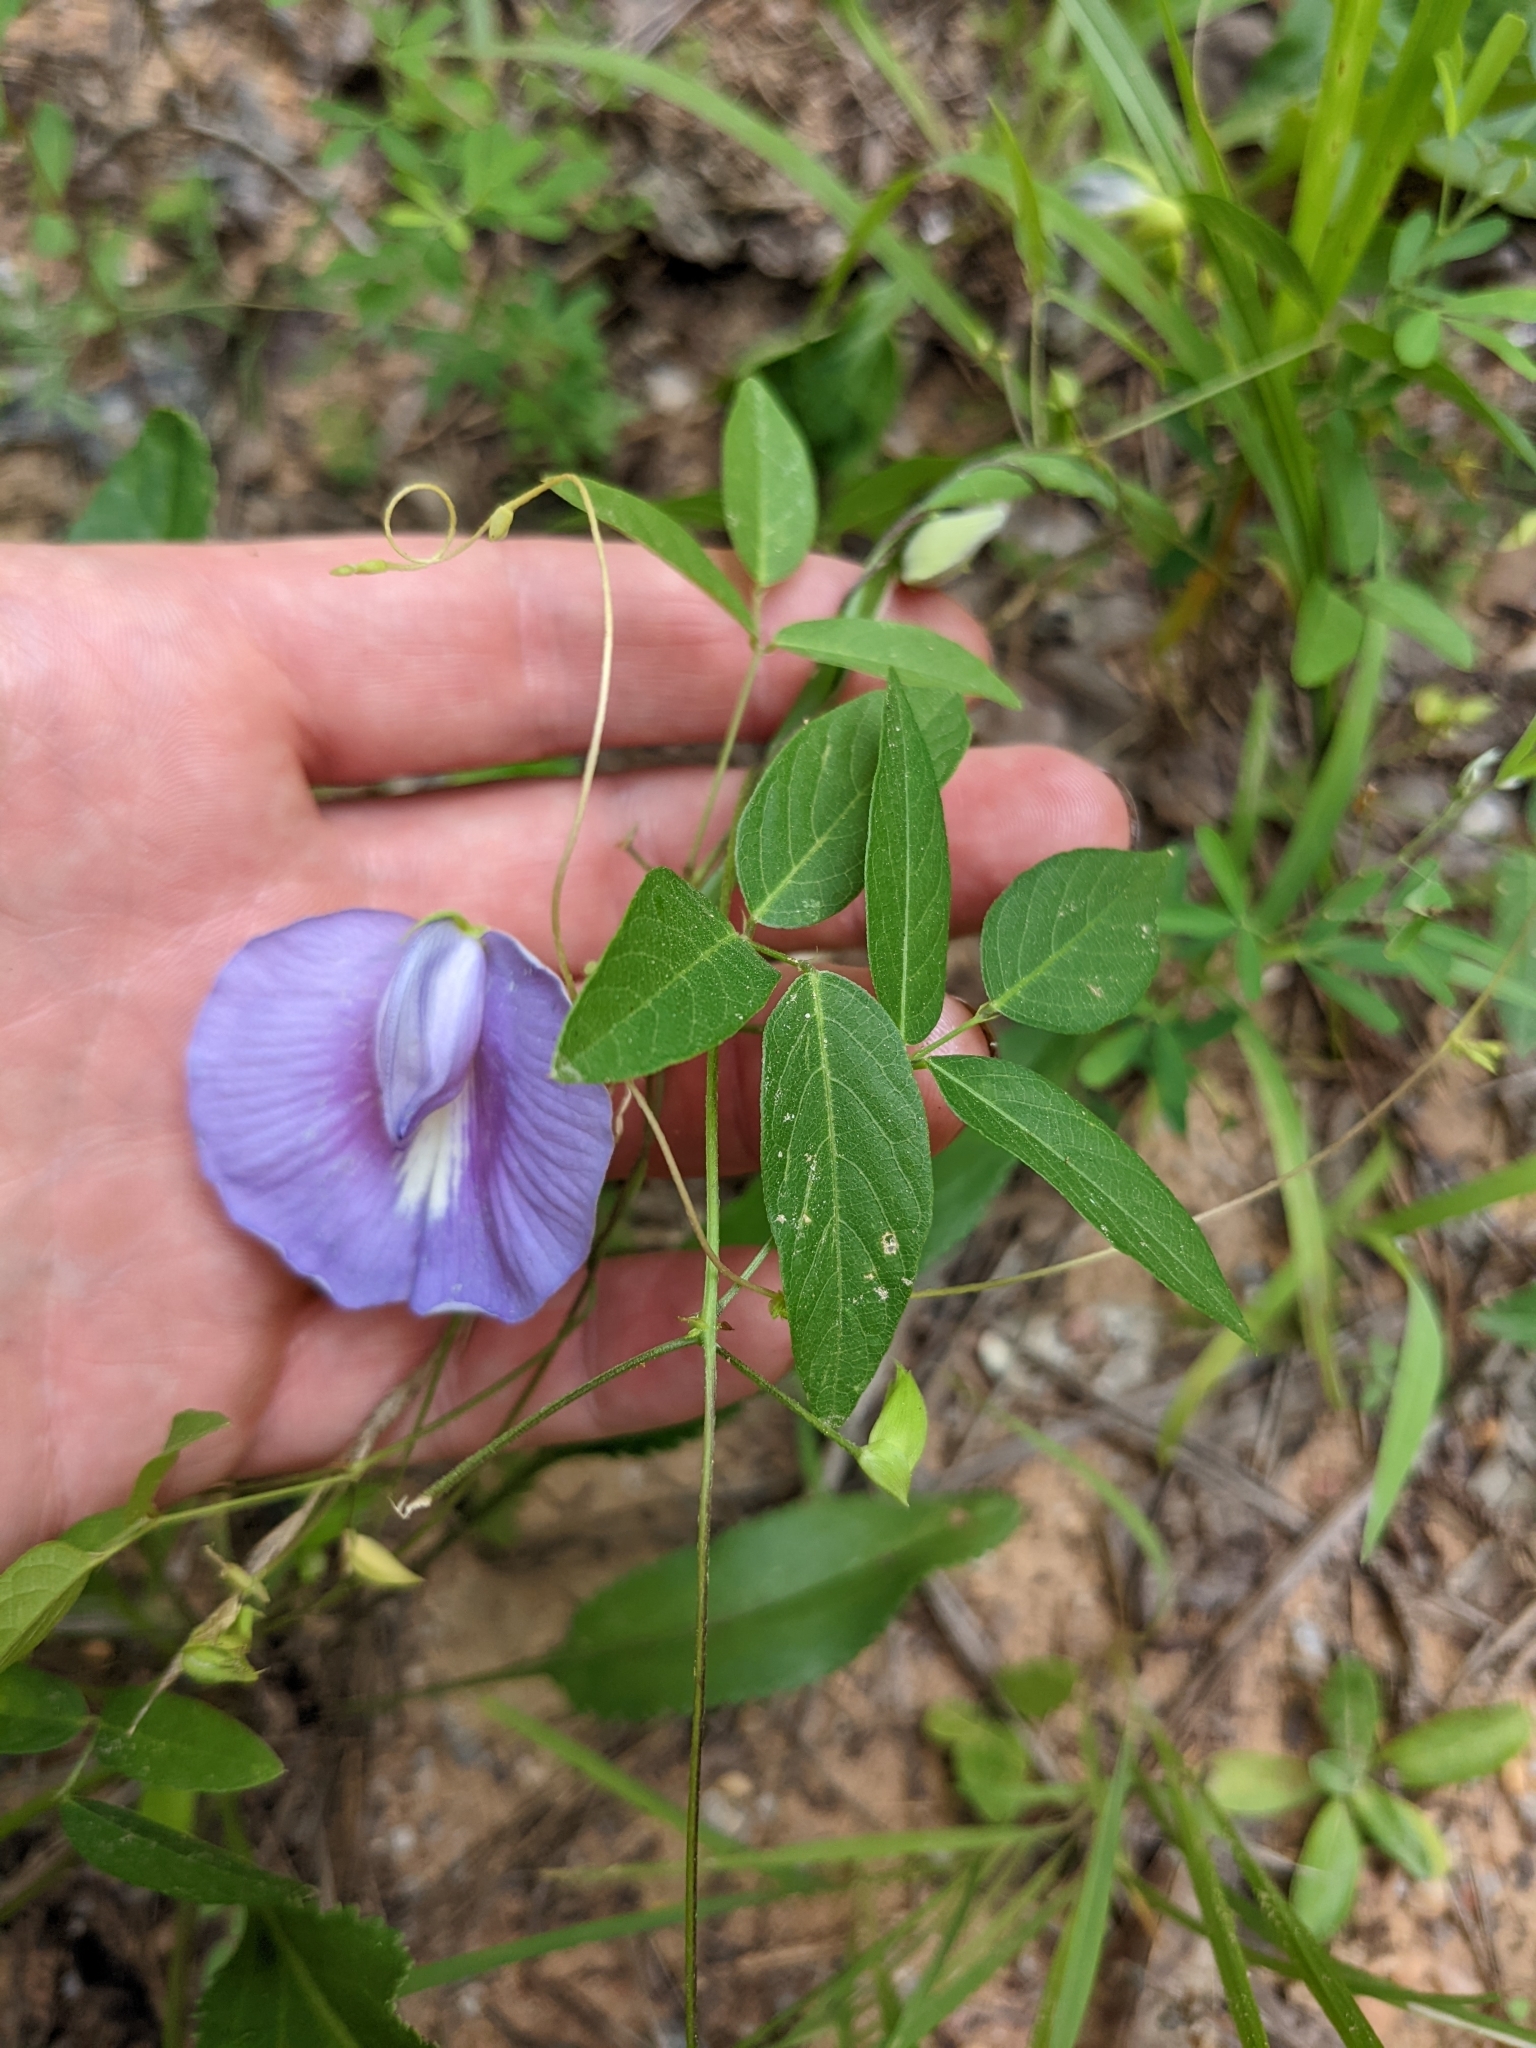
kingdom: Plantae
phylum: Tracheophyta
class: Magnoliopsida
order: Fabales
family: Fabaceae
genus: Centrosema
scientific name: Centrosema virginianum
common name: Butterfly-pea
